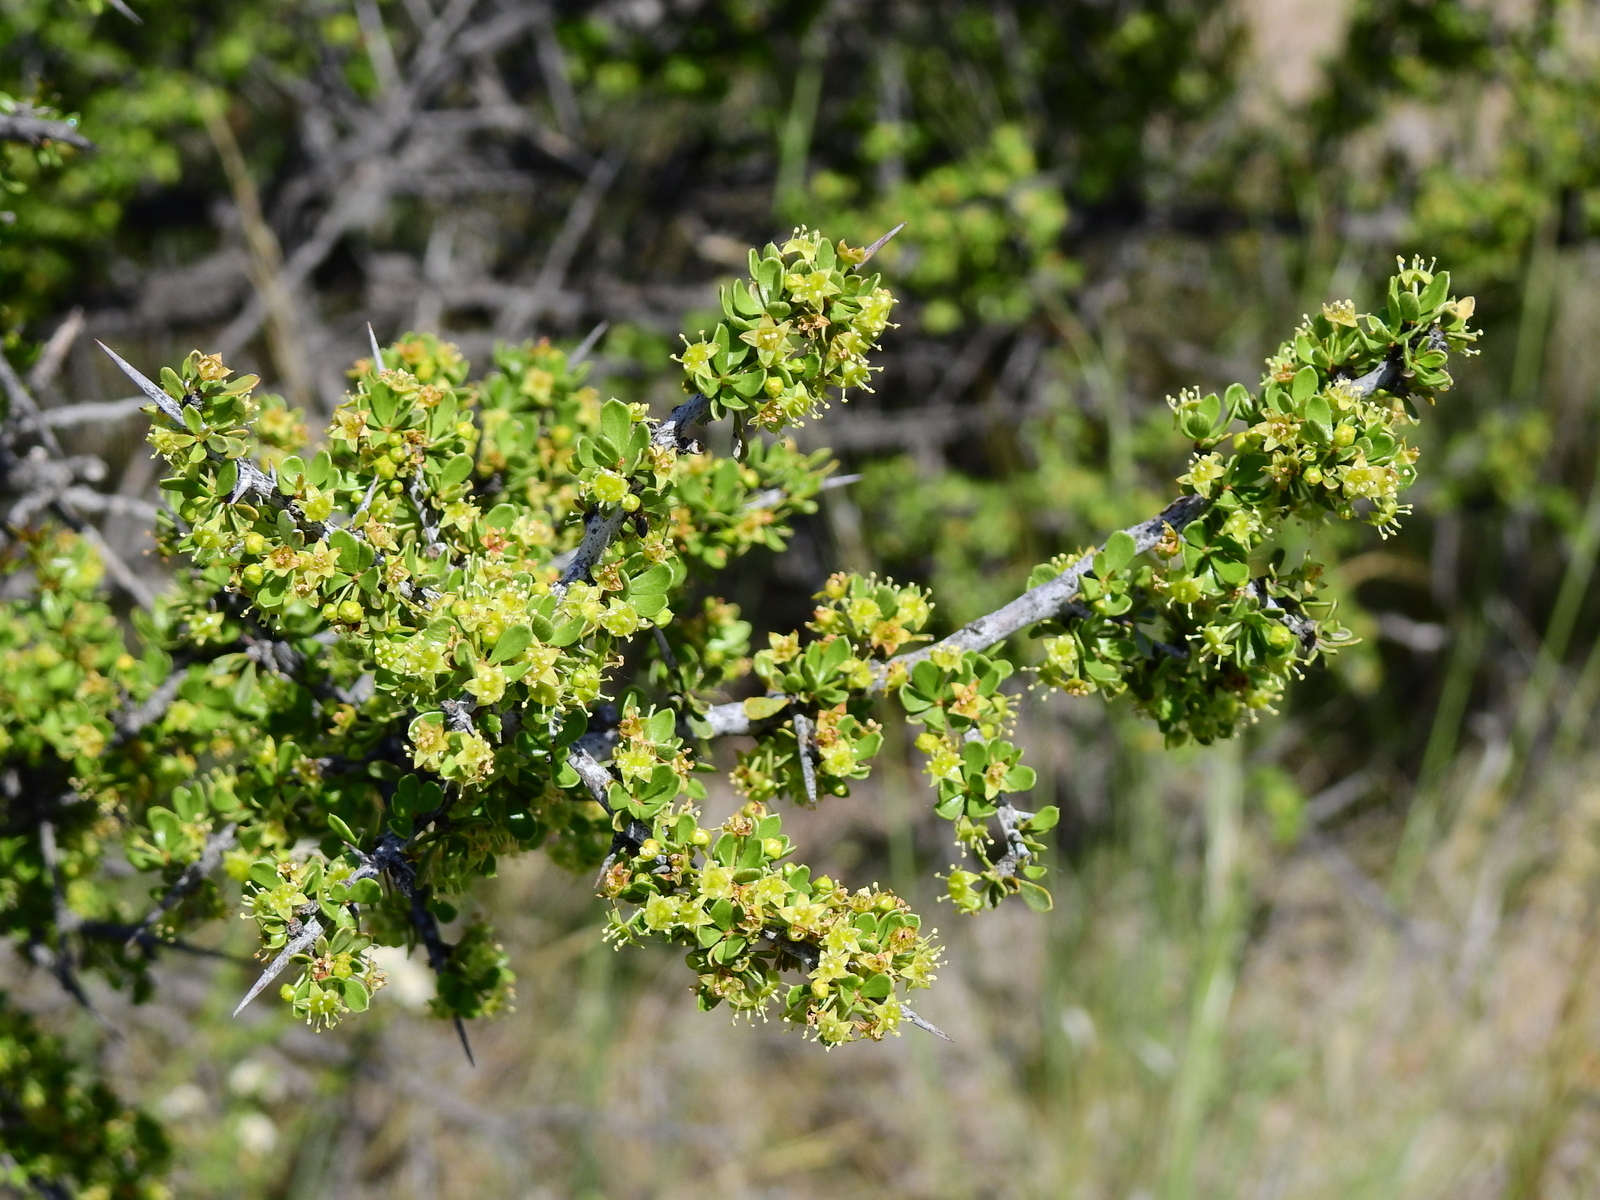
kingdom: Plantae
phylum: Tracheophyta
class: Magnoliopsida
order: Rosales
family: Rhamnaceae
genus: Condalia
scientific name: Condalia microphylla
